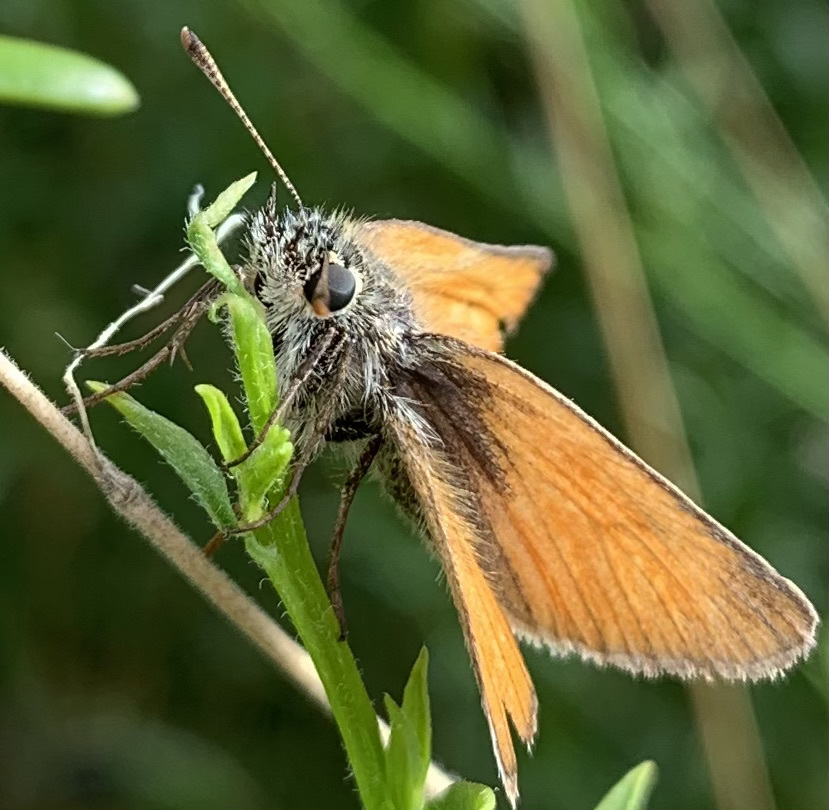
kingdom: Animalia
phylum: Arthropoda
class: Insecta
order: Lepidoptera
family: Hesperiidae
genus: Thymelicus
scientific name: Thymelicus sylvestris
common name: Small skipper
